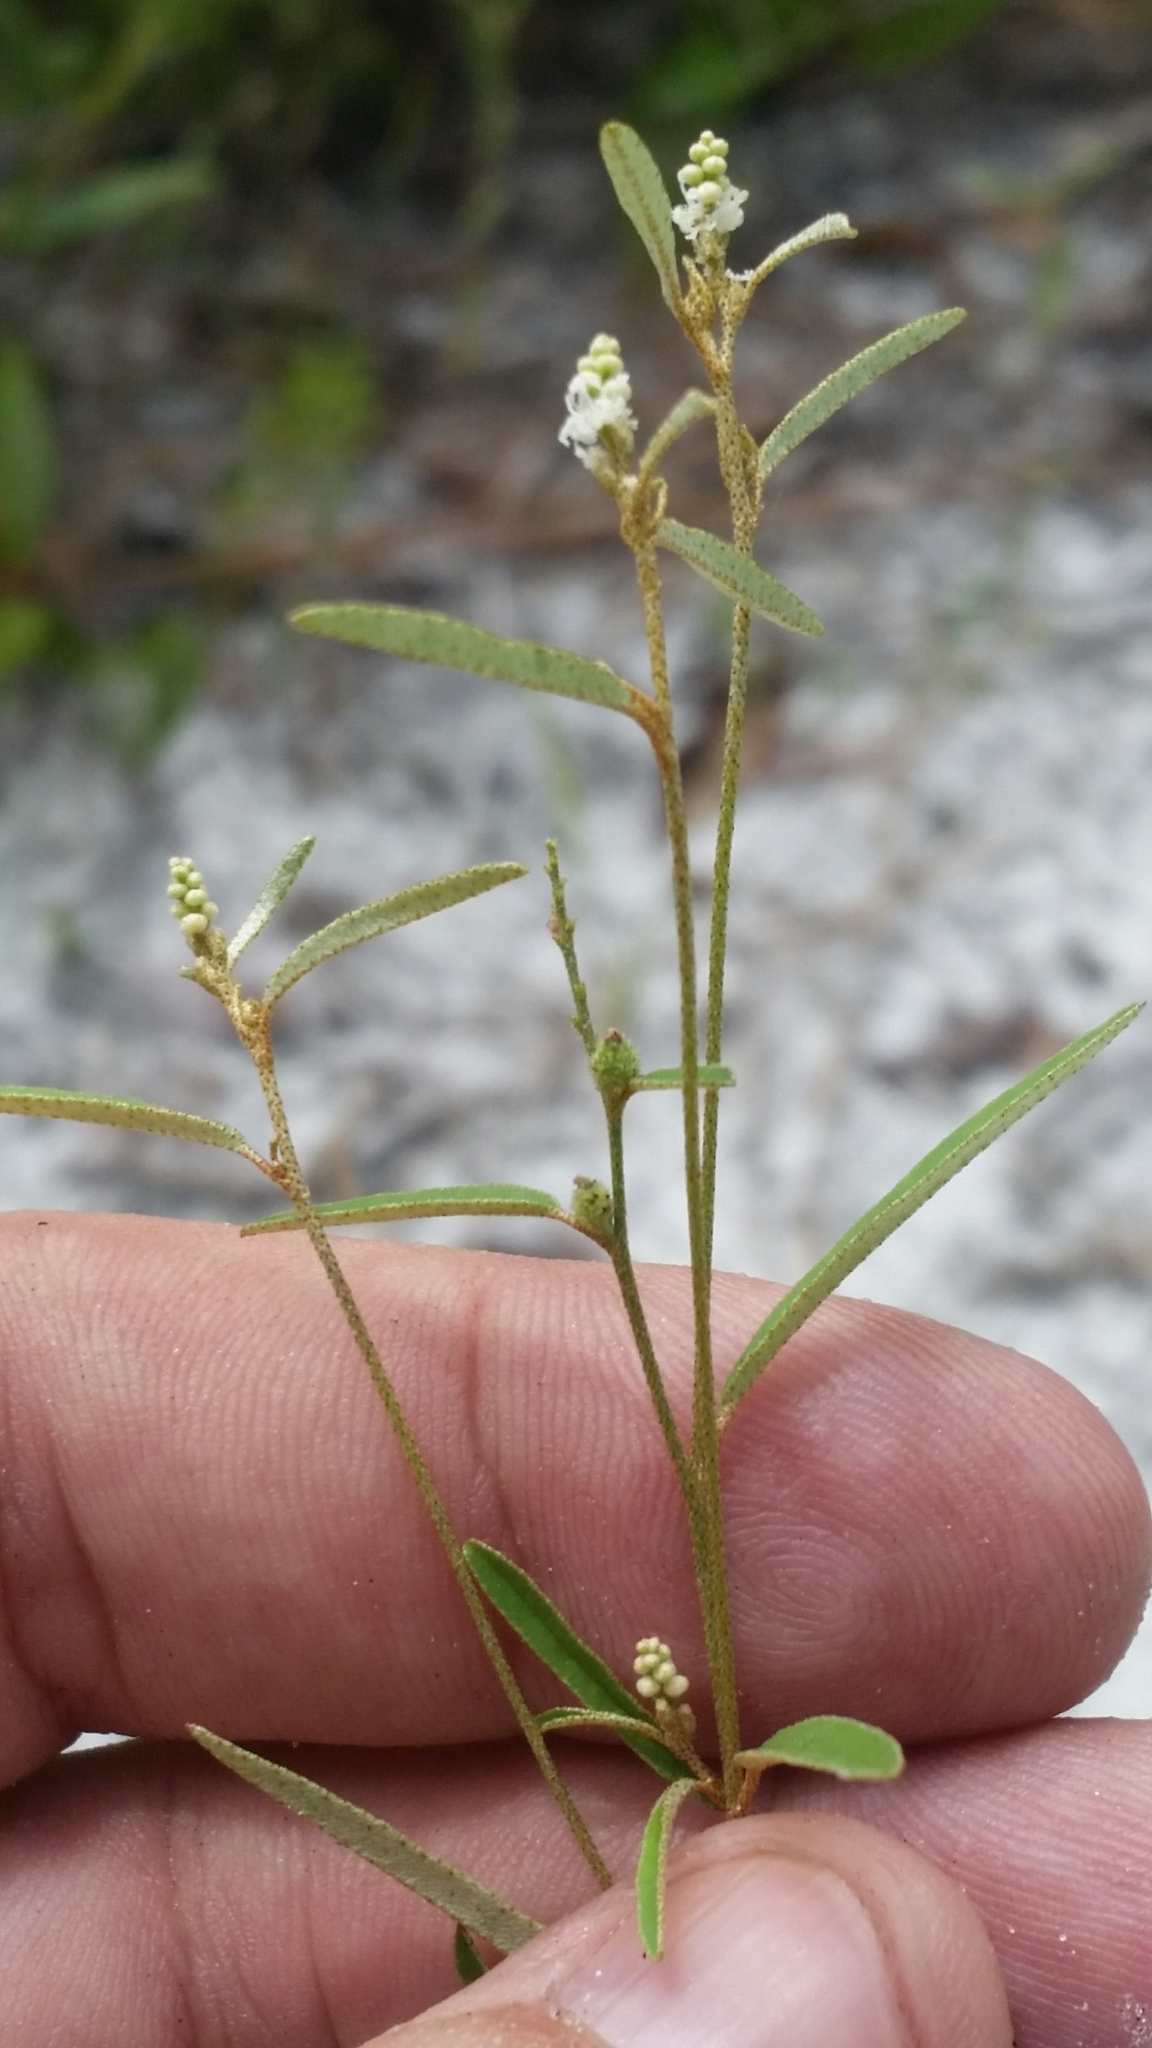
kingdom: Plantae
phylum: Tracheophyta
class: Magnoliopsida
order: Malpighiales
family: Euphorbiaceae
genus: Croton
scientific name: Croton michauxii
